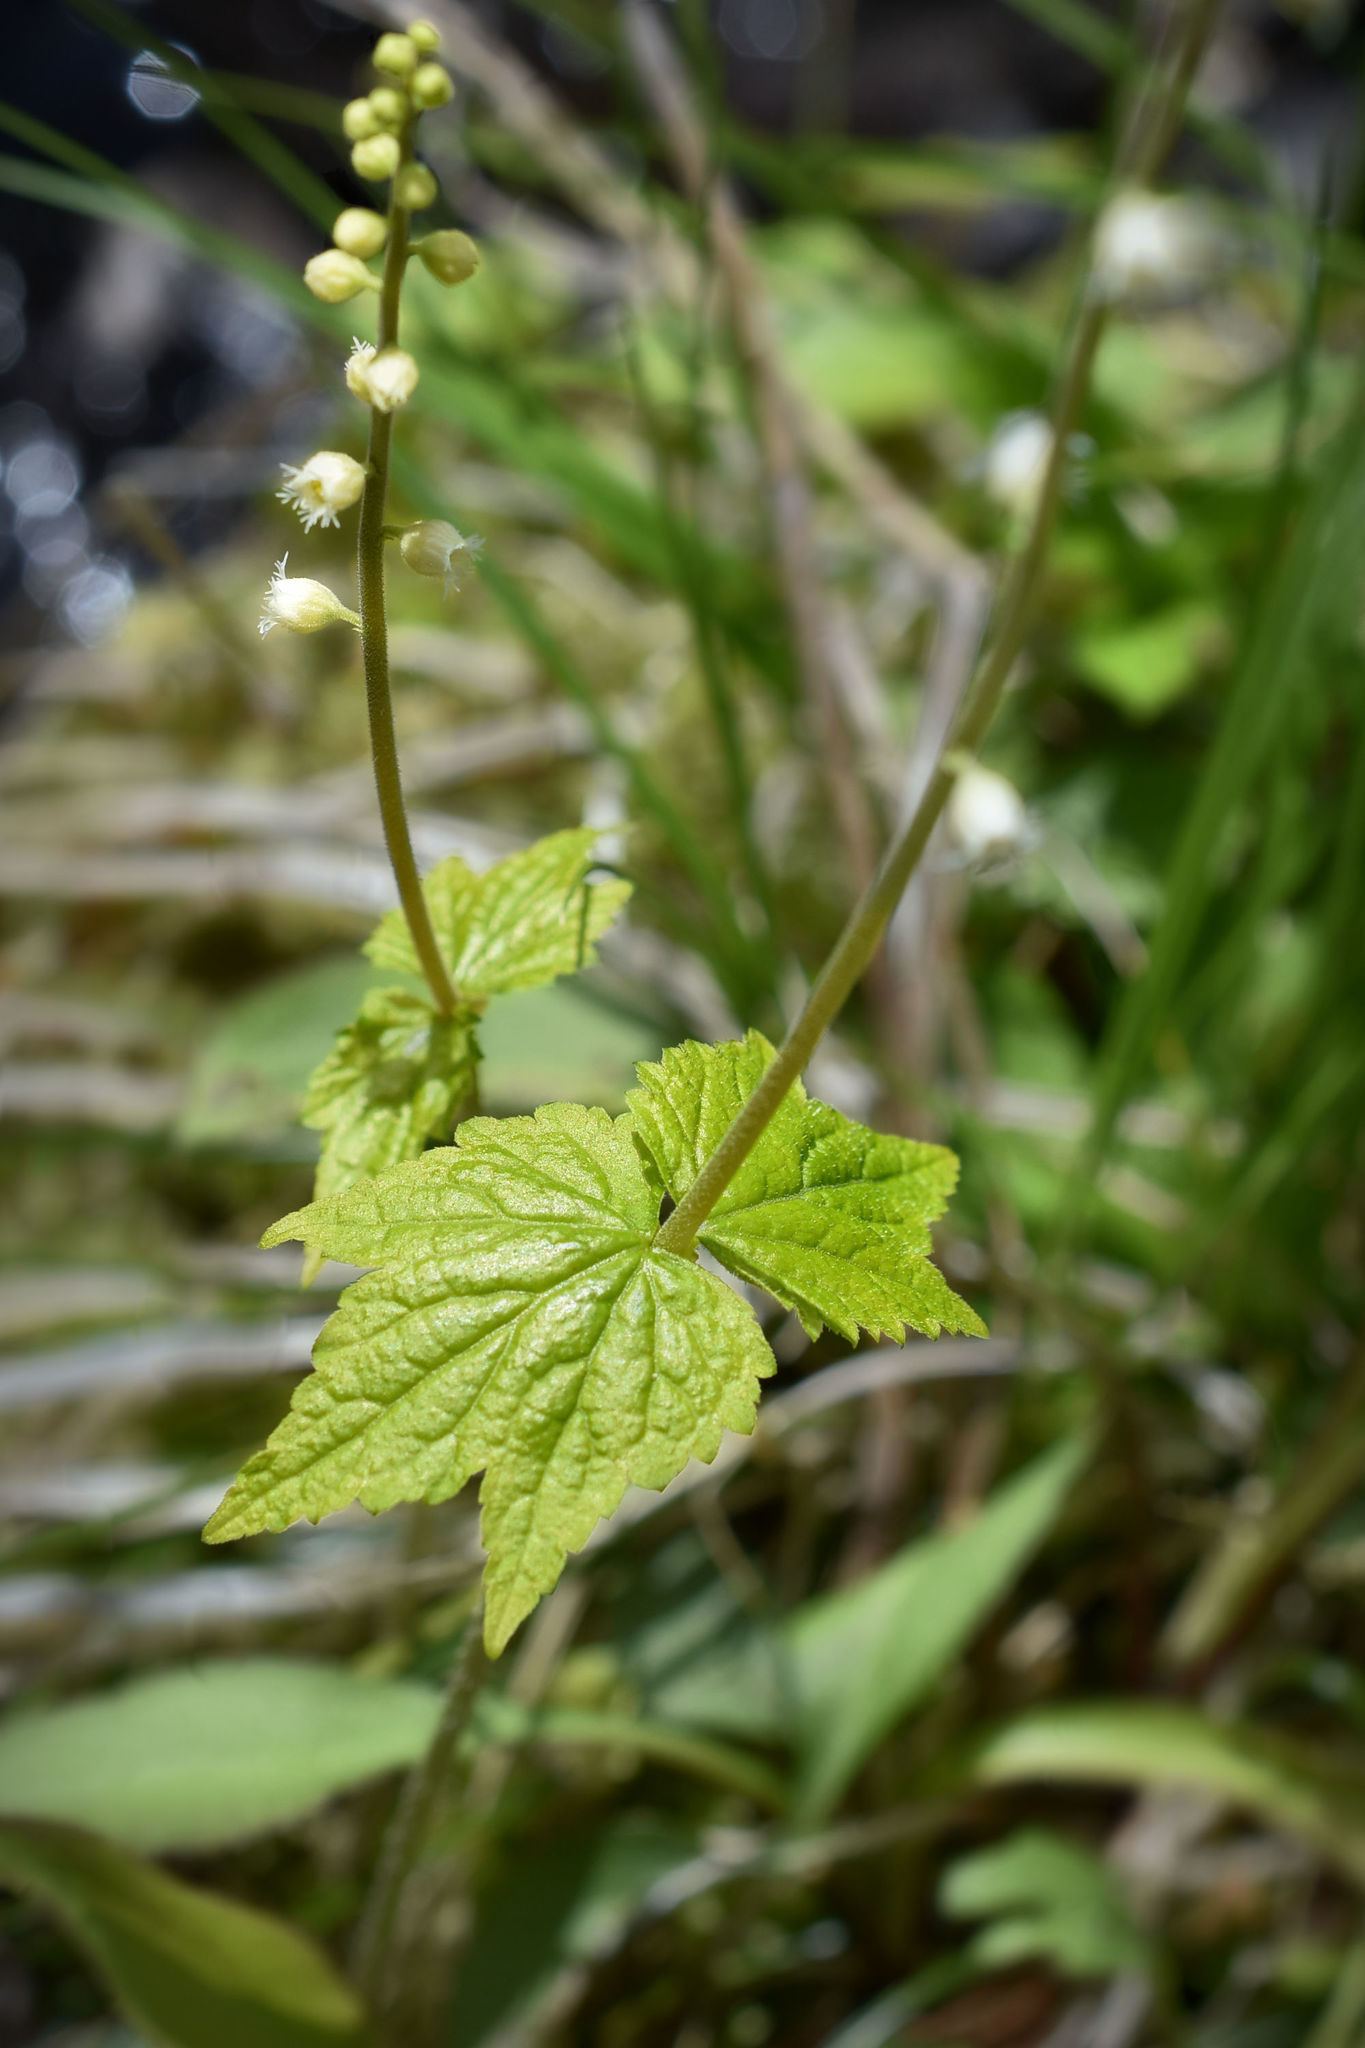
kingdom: Plantae
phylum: Tracheophyta
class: Magnoliopsida
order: Saxifragales
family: Saxifragaceae
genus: Mitella
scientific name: Mitella diphylla
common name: Coolwort
